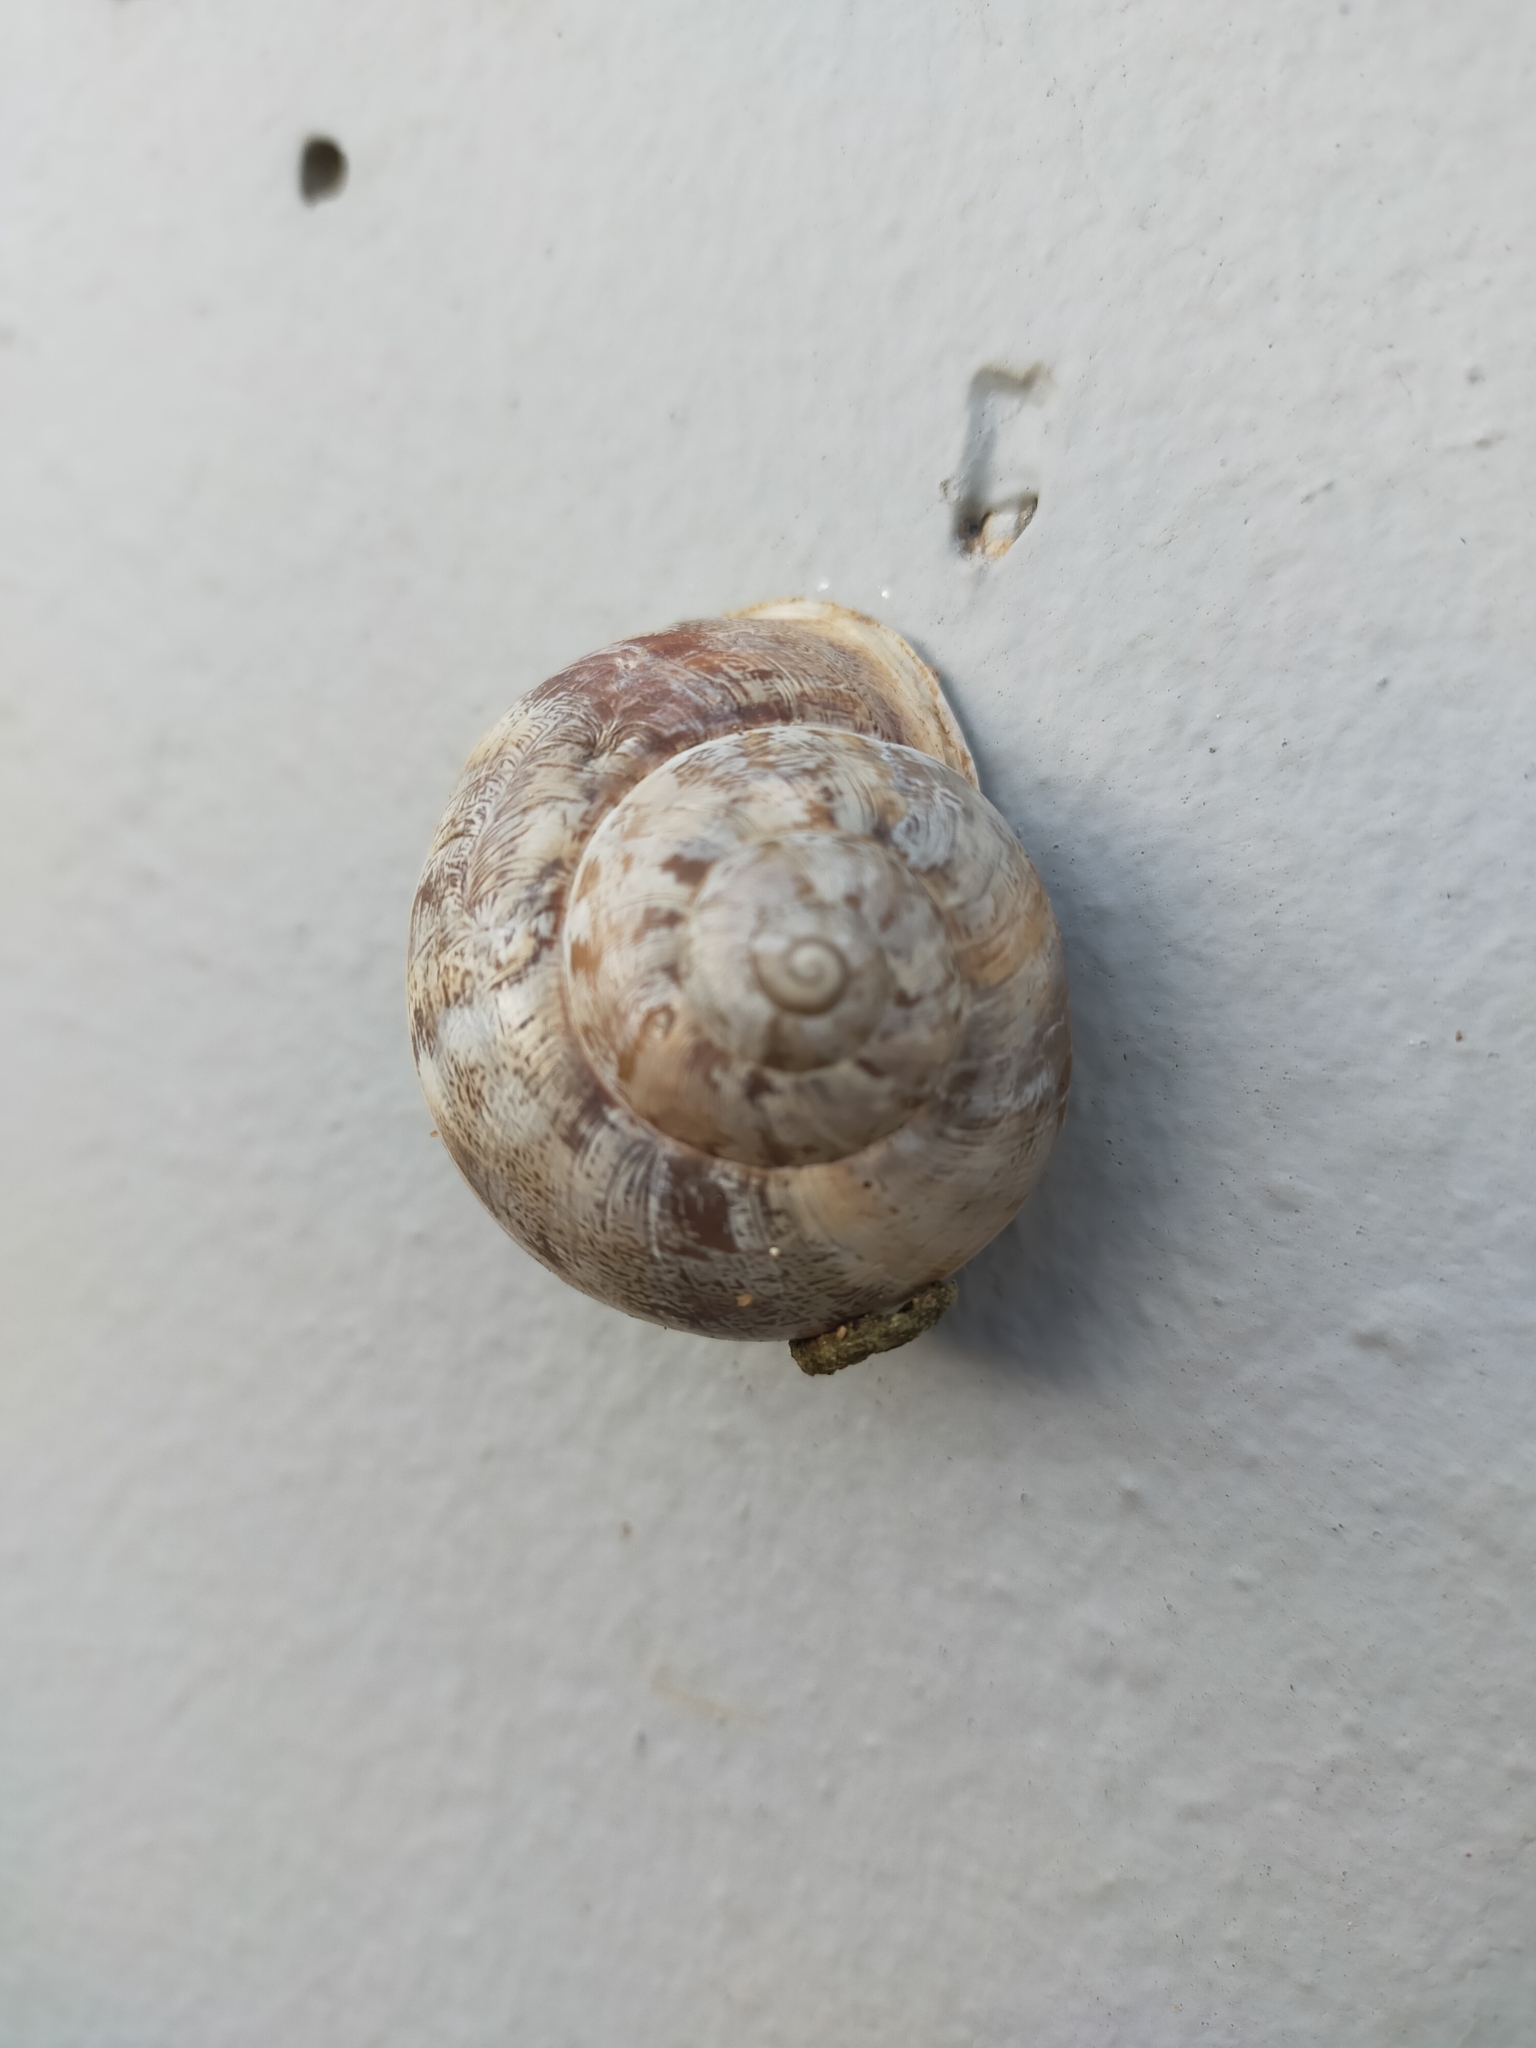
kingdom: Animalia
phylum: Mollusca
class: Gastropoda
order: Stylommatophora
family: Helicidae
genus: Eobania
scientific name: Eobania vermiculata
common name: Chocolateband snail
